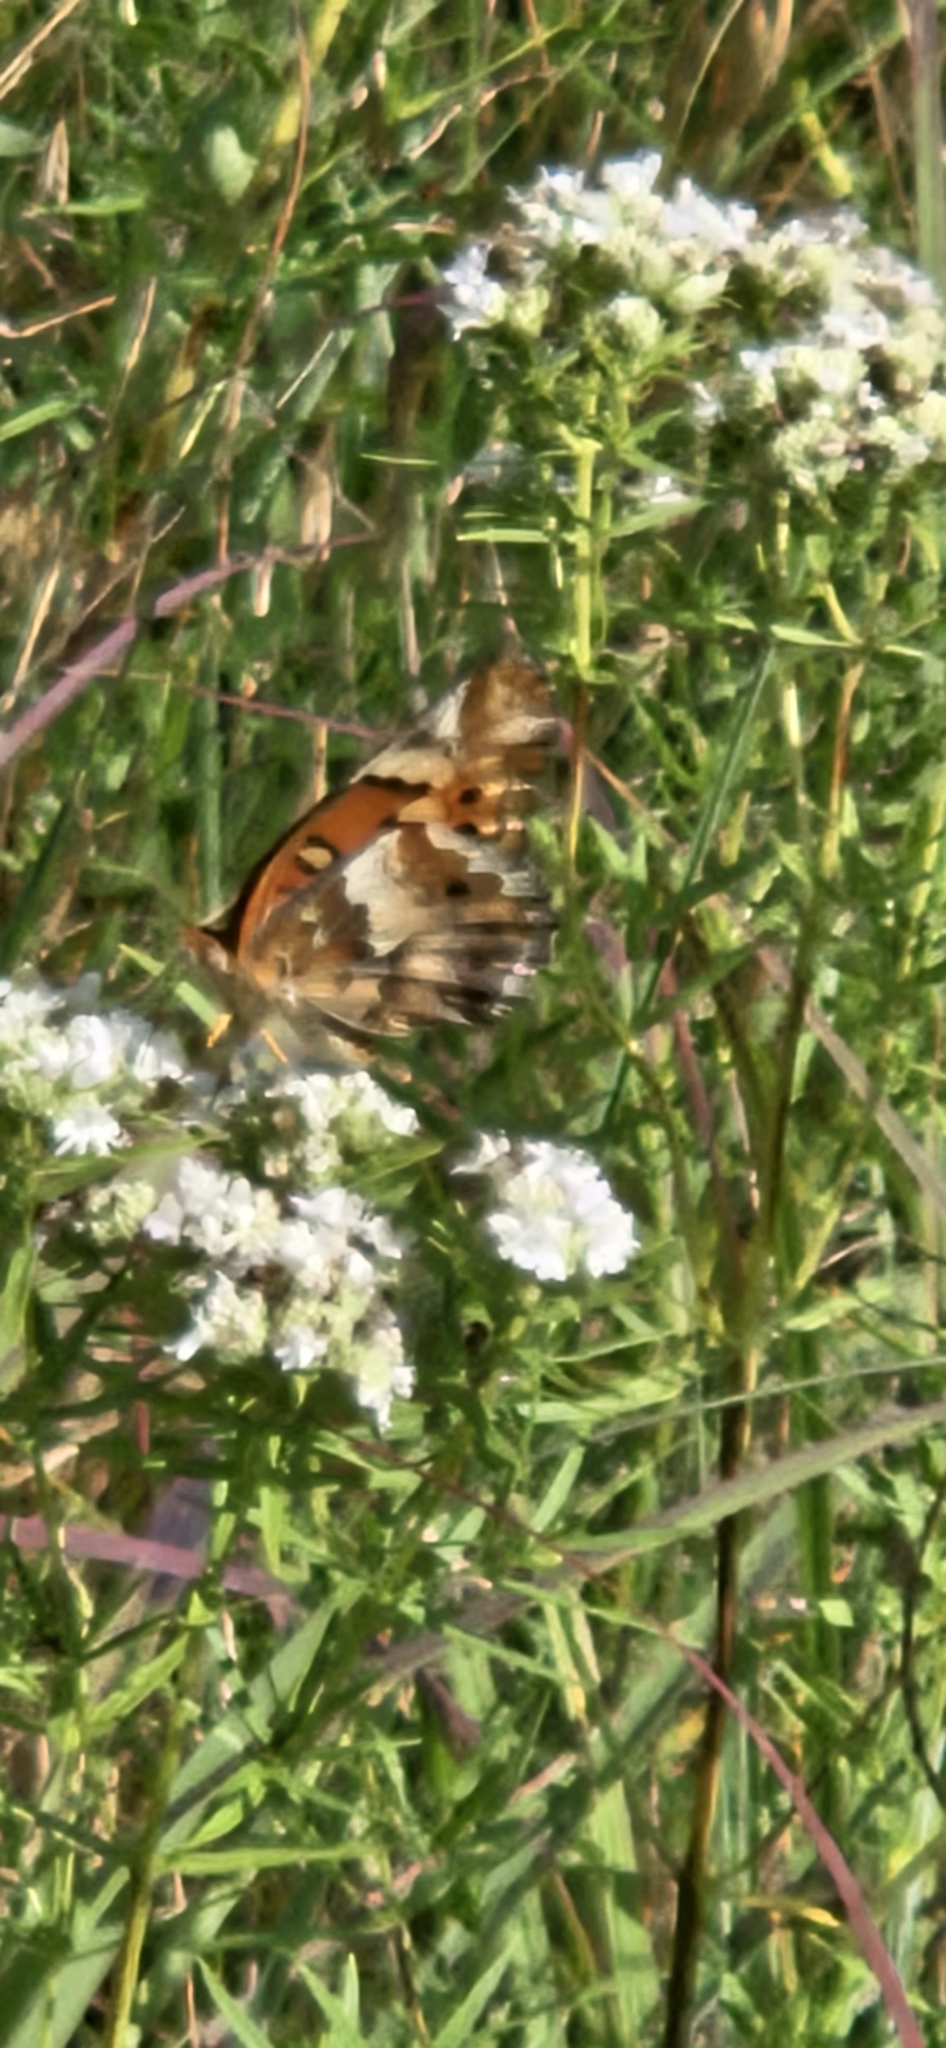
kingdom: Animalia
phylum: Arthropoda
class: Insecta
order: Lepidoptera
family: Nymphalidae
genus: Euptoieta
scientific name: Euptoieta claudia
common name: Variegated fritillary
